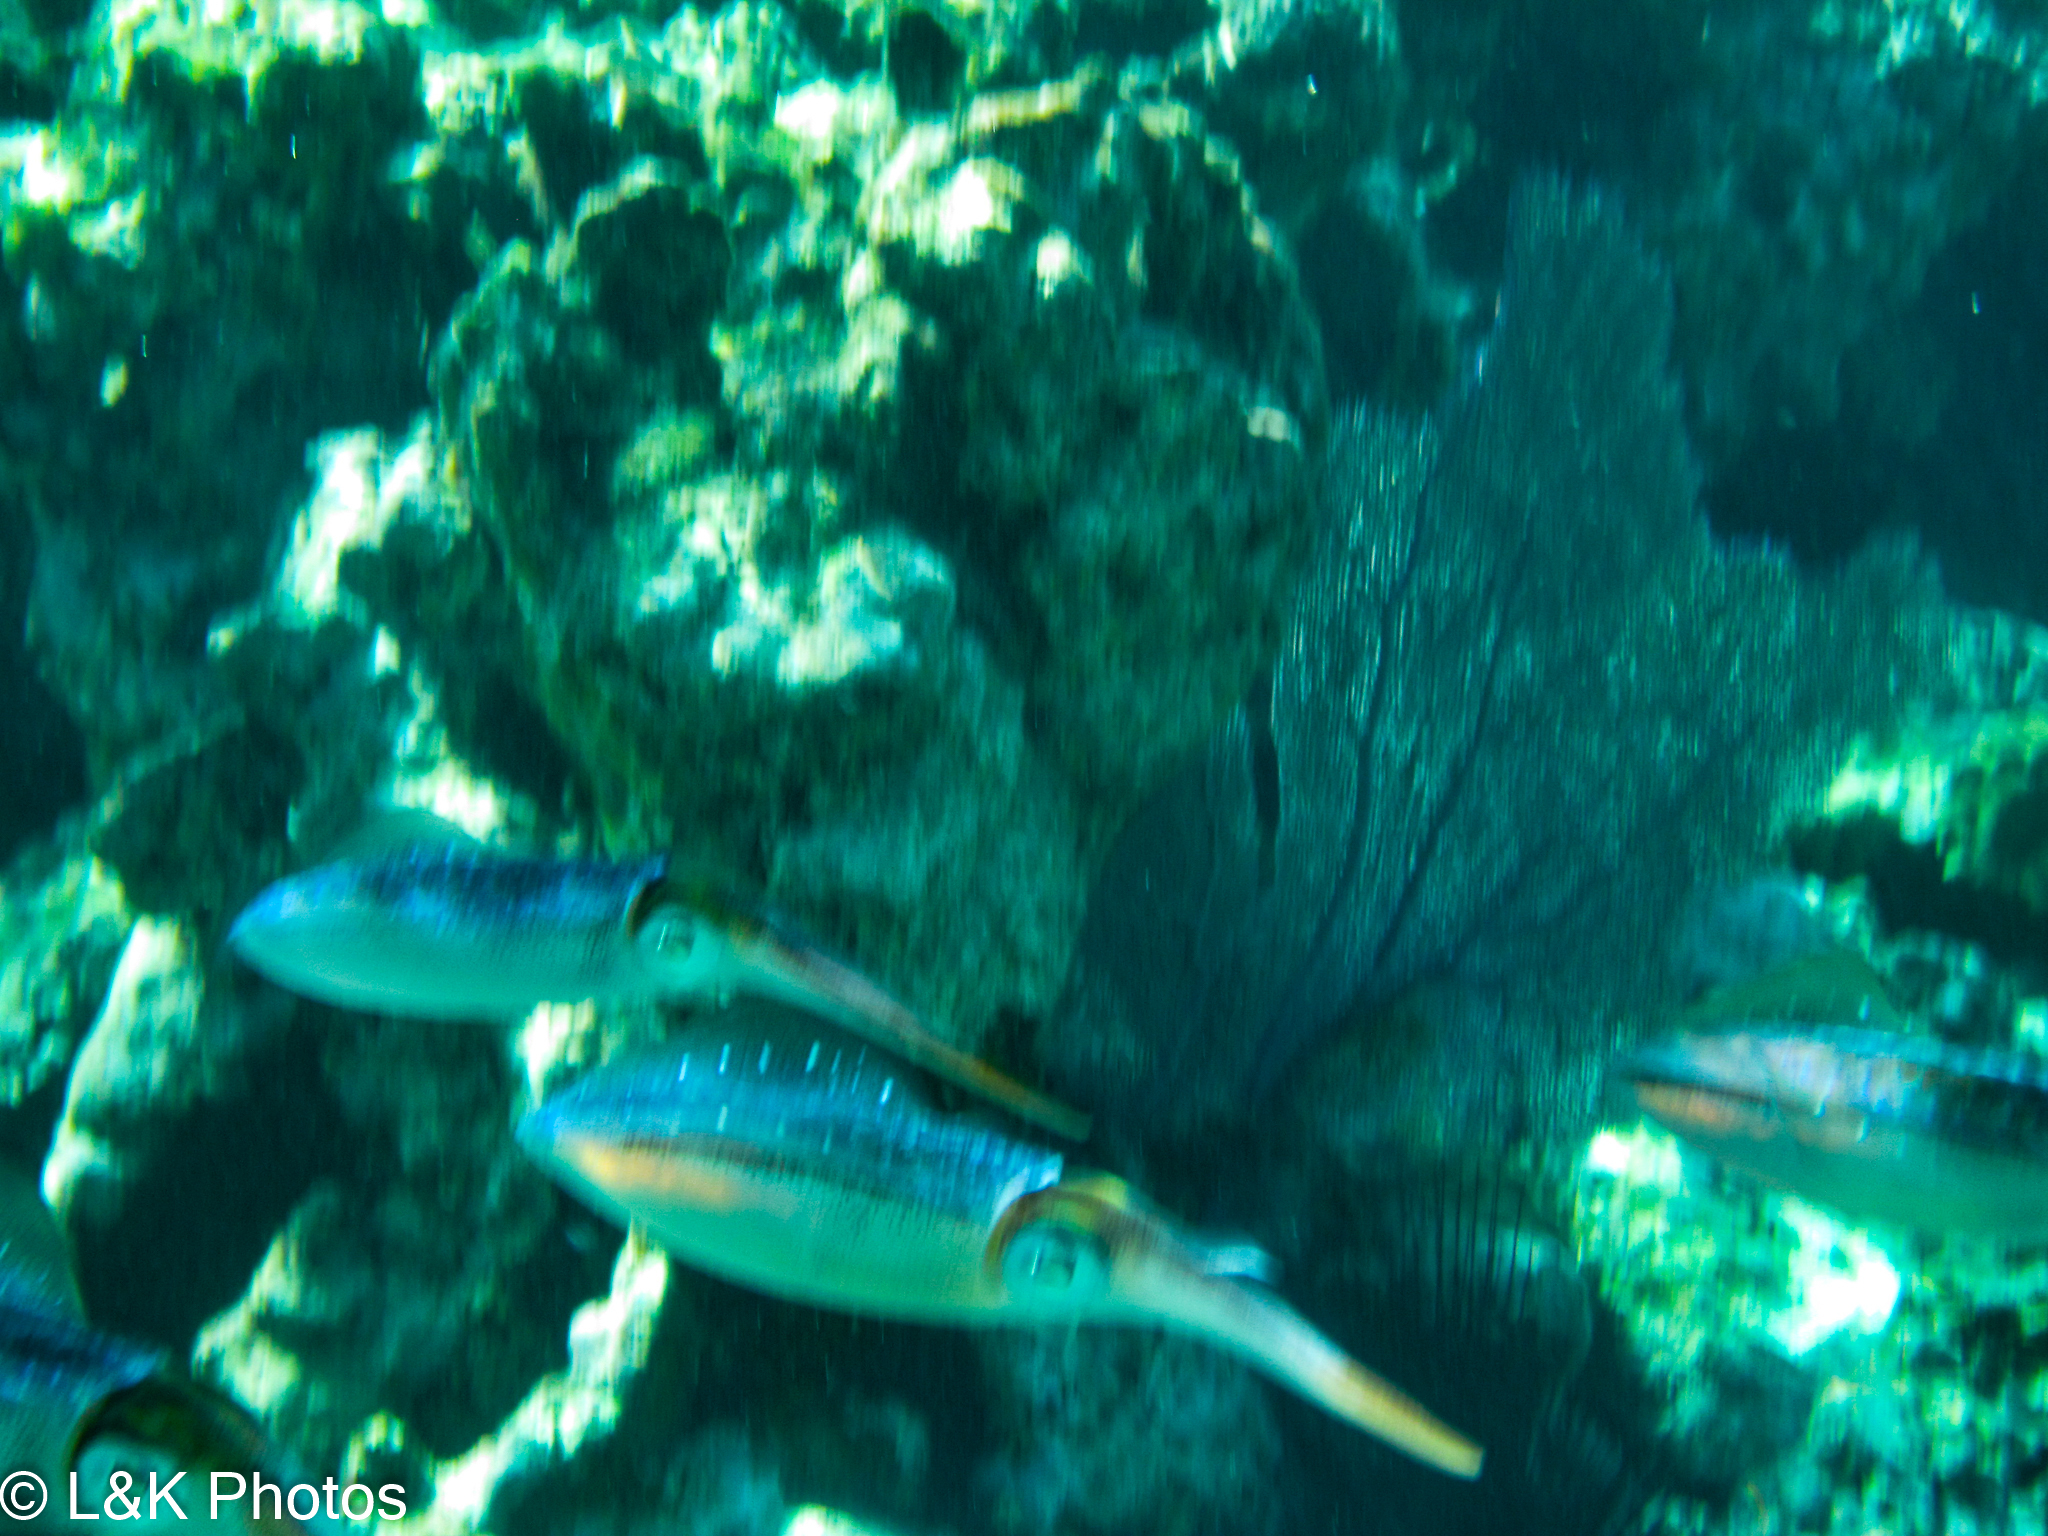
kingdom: Animalia
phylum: Mollusca
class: Cephalopoda
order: Myopsida
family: Loliginidae
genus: Sepioteuthis
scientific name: Sepioteuthis sepioidea
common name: Caribbean reef squid
